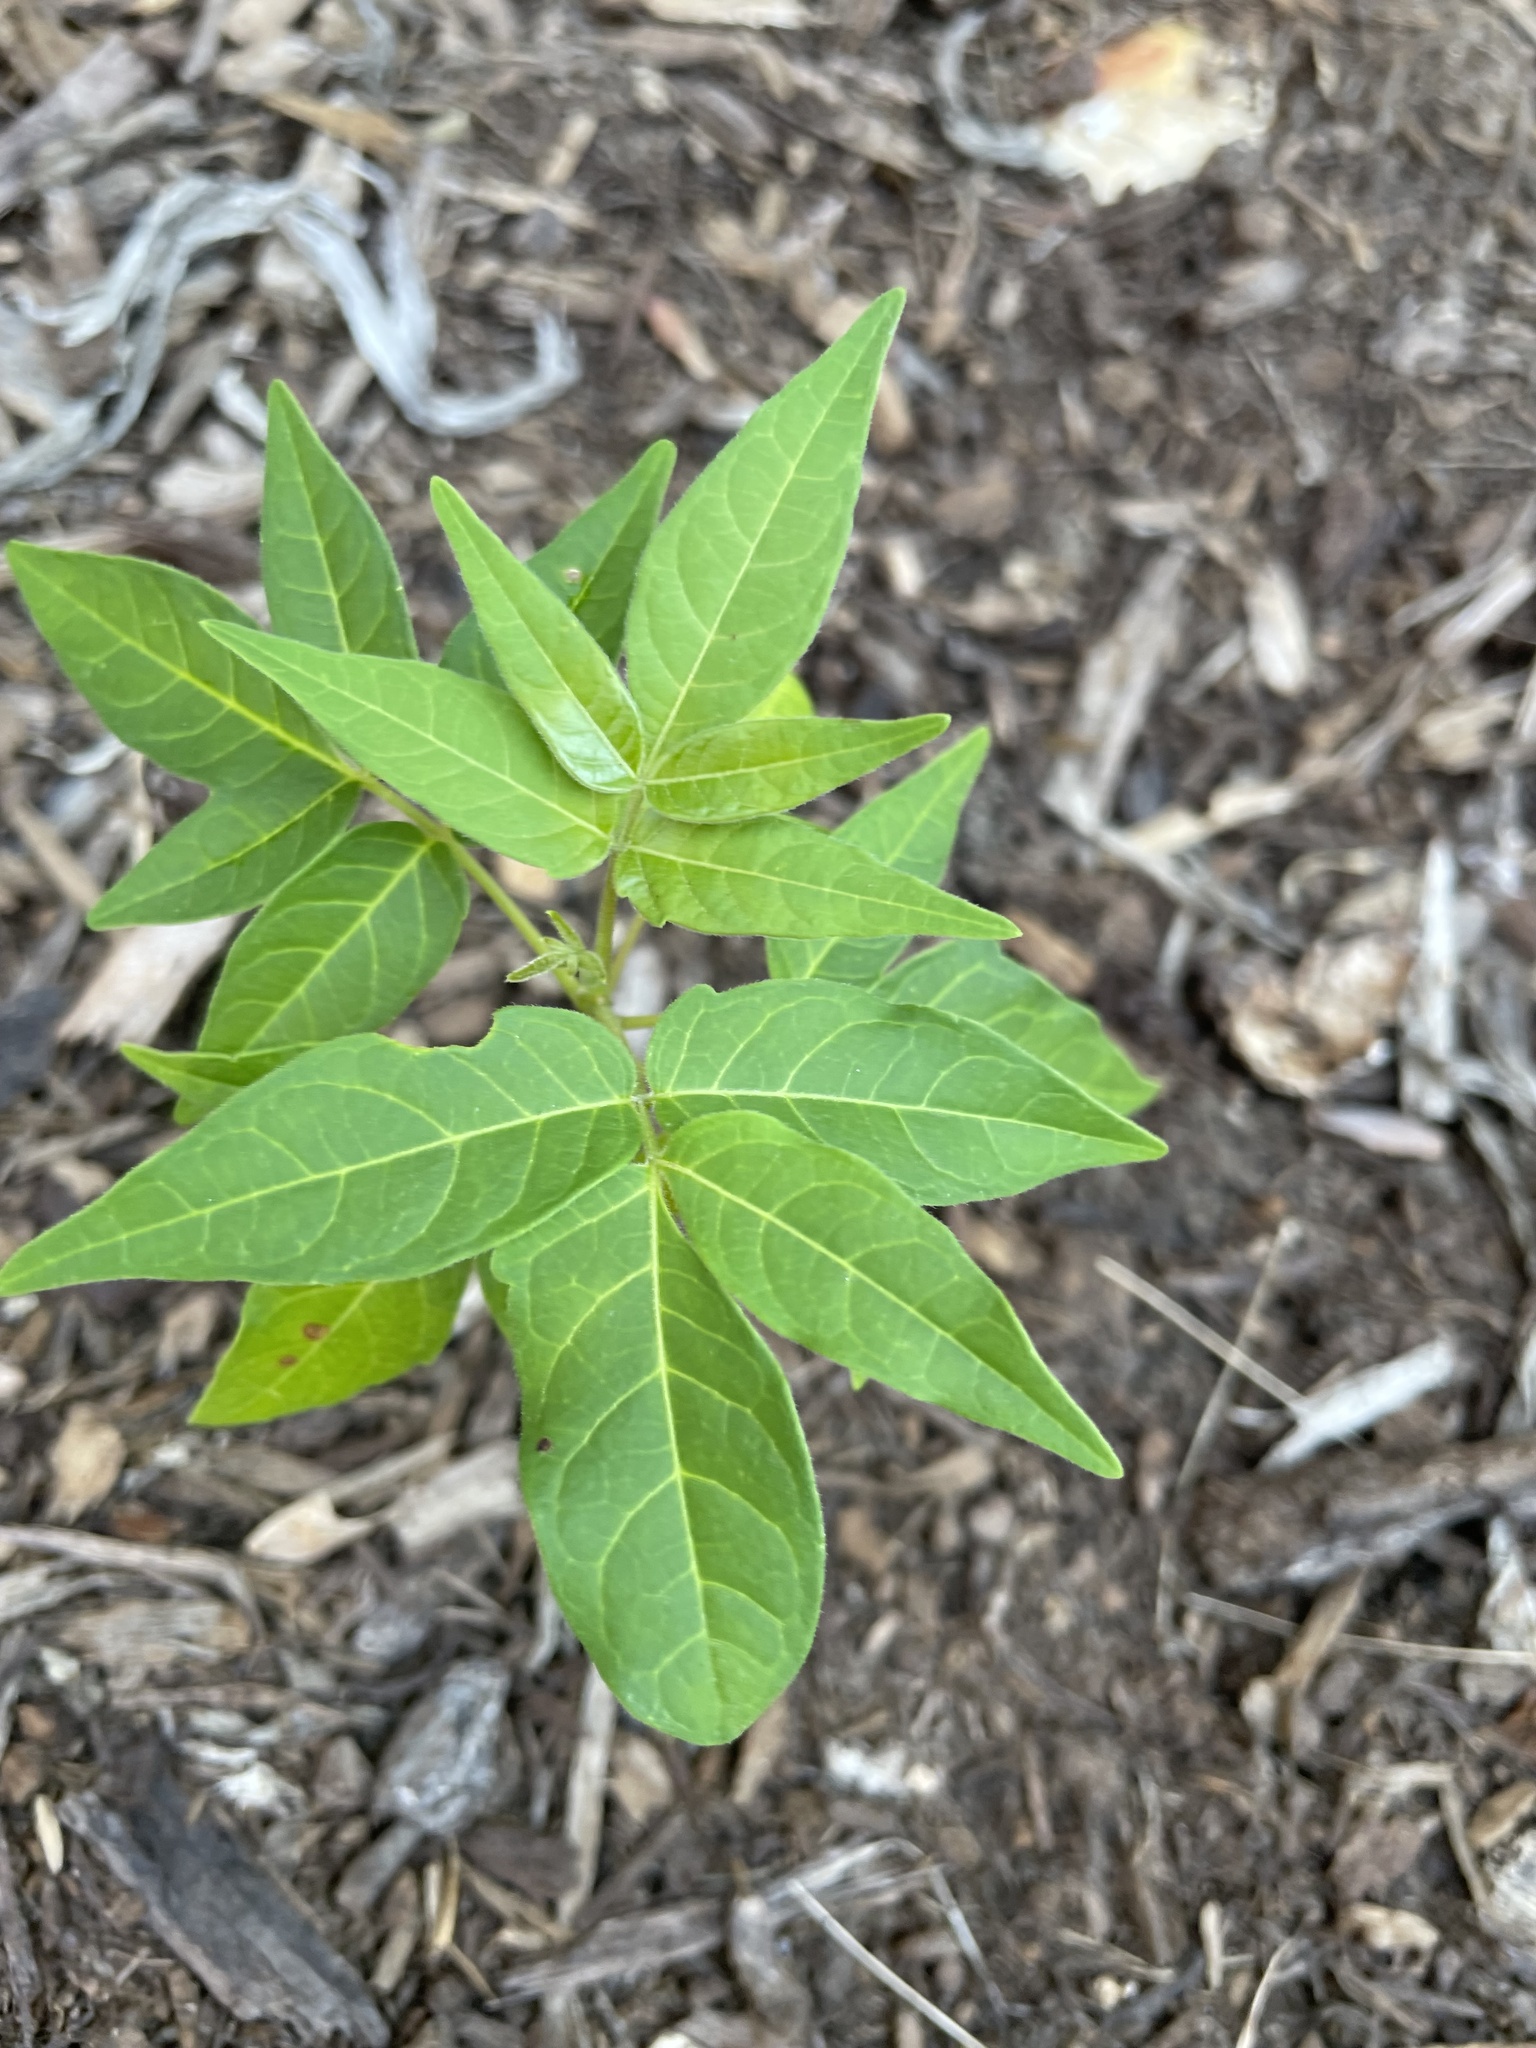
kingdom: Plantae
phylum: Tracheophyta
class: Magnoliopsida
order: Sapindales
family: Simaroubaceae
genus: Ailanthus
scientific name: Ailanthus altissima
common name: Tree-of-heaven
